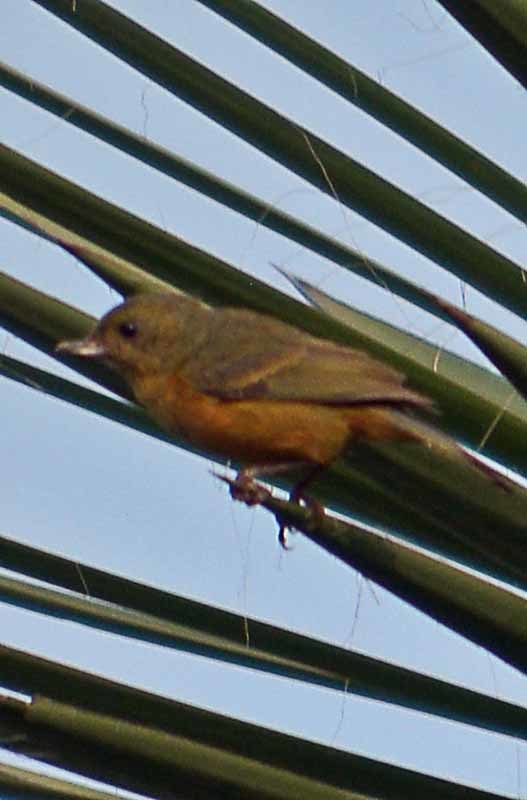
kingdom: Animalia
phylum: Chordata
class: Aves
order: Passeriformes
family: Thraupidae
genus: Diglossa
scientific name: Diglossa baritula
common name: Cinnamon-bellied flowerpiercer
